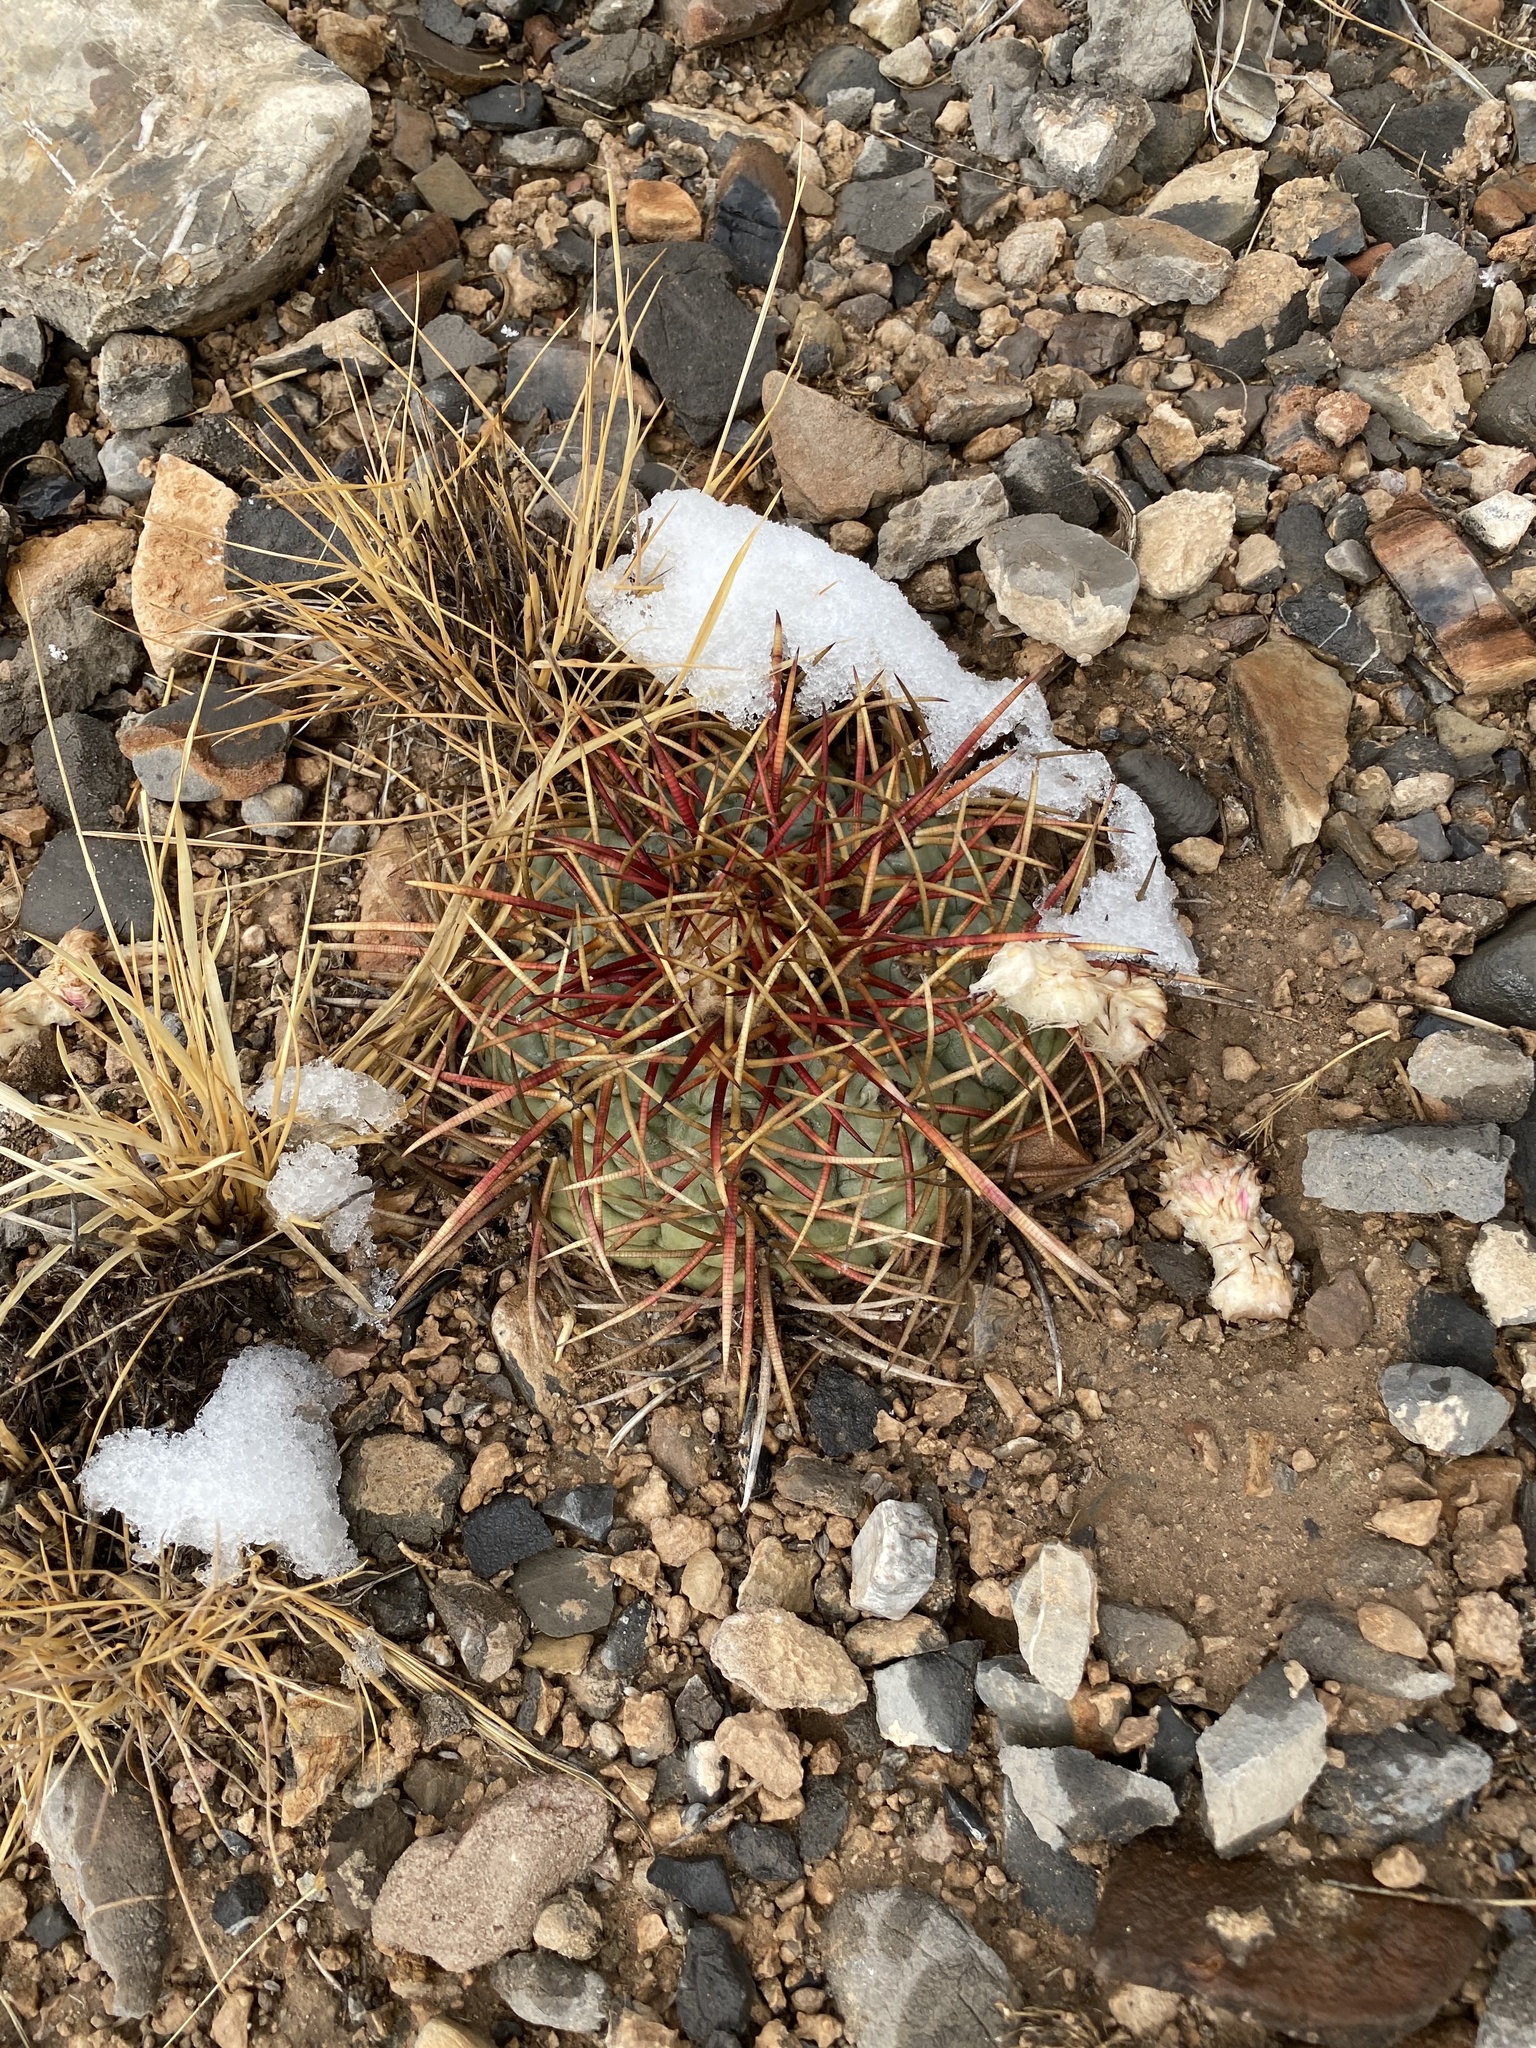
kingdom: Plantae
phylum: Tracheophyta
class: Magnoliopsida
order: Caryophyllales
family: Cactaceae
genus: Echinocactus
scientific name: Echinocactus horizonthalonius
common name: Devilshead
